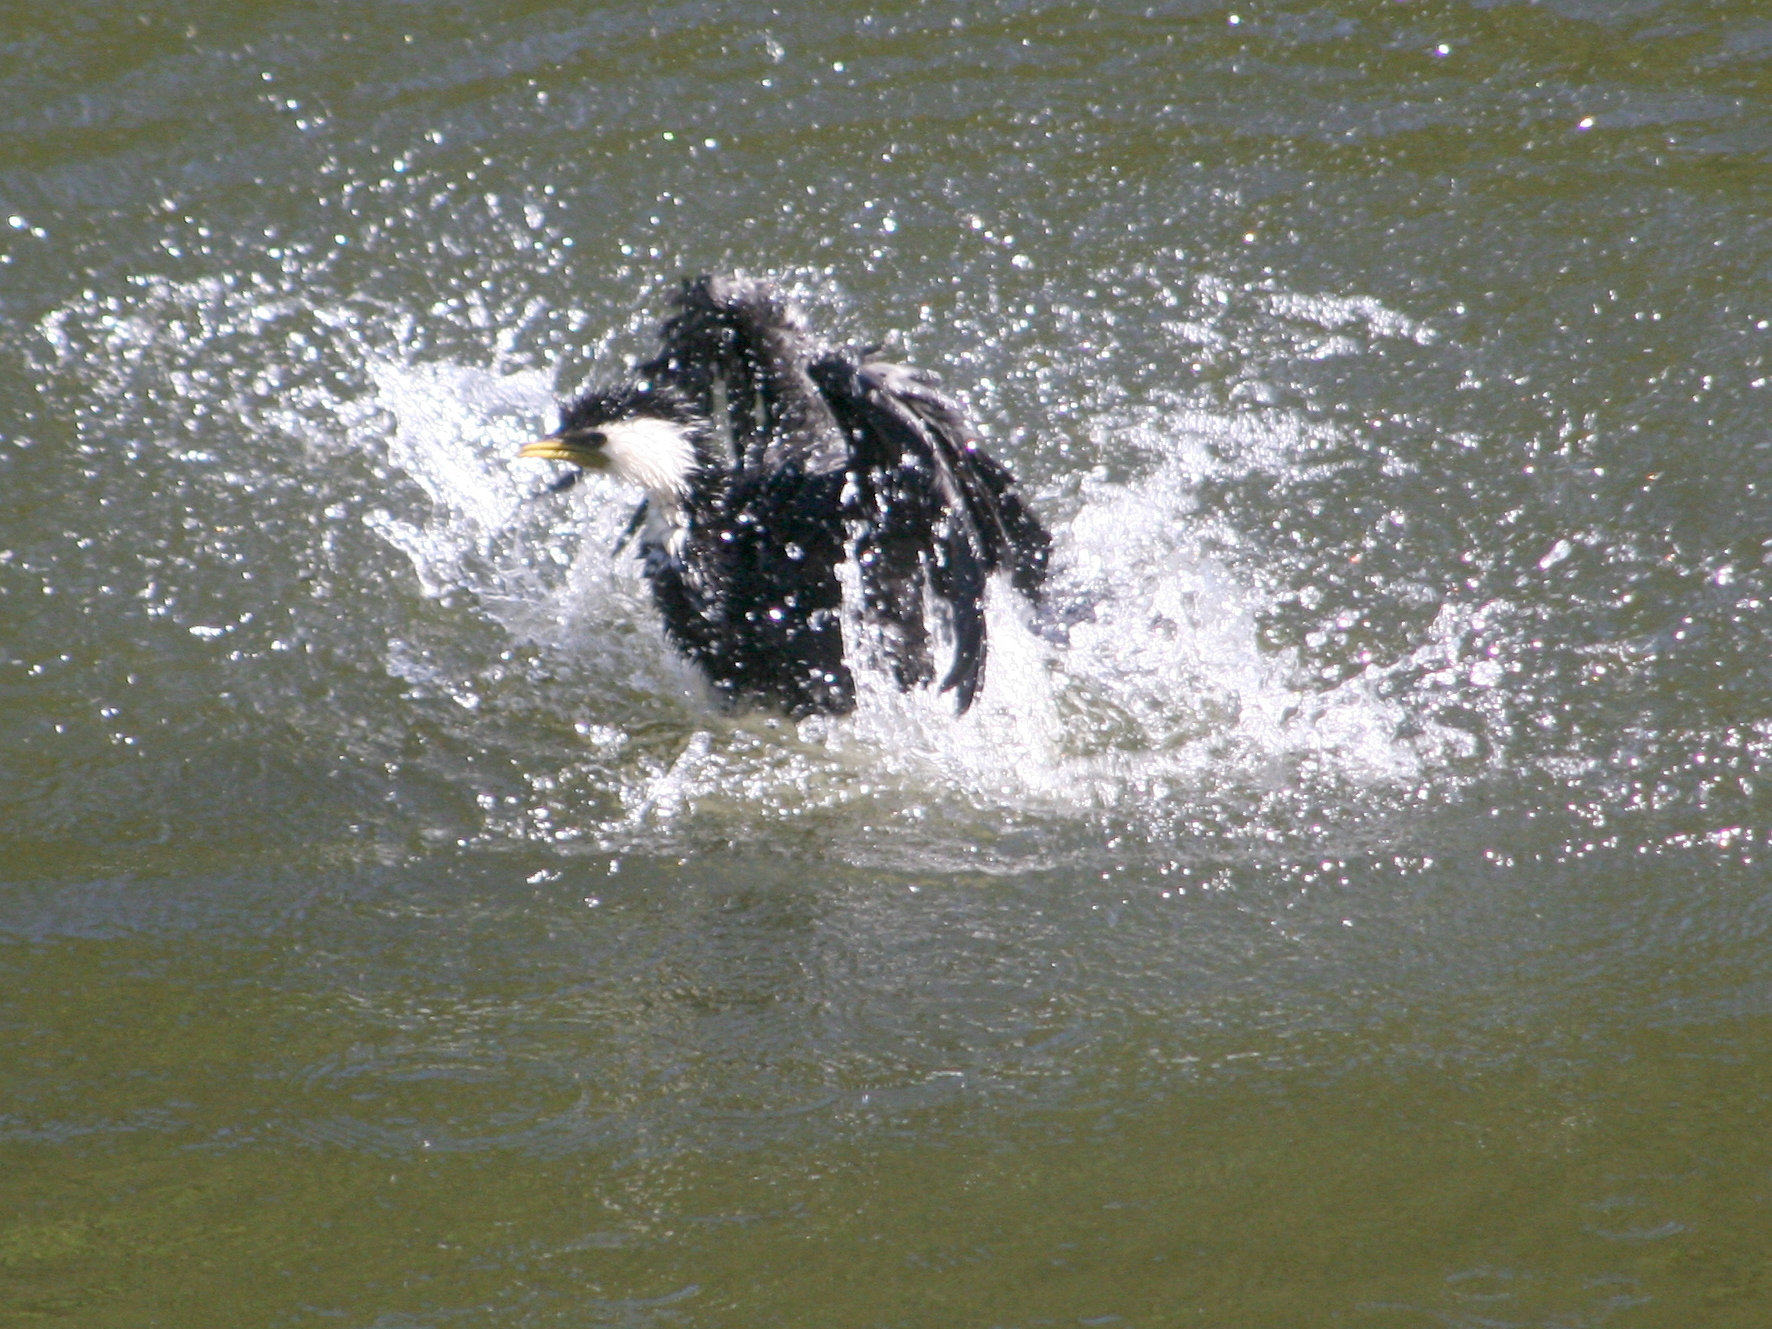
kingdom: Animalia
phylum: Chordata
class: Aves
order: Suliformes
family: Phalacrocoracidae
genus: Microcarbo
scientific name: Microcarbo melanoleucos
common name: Little pied cormorant
